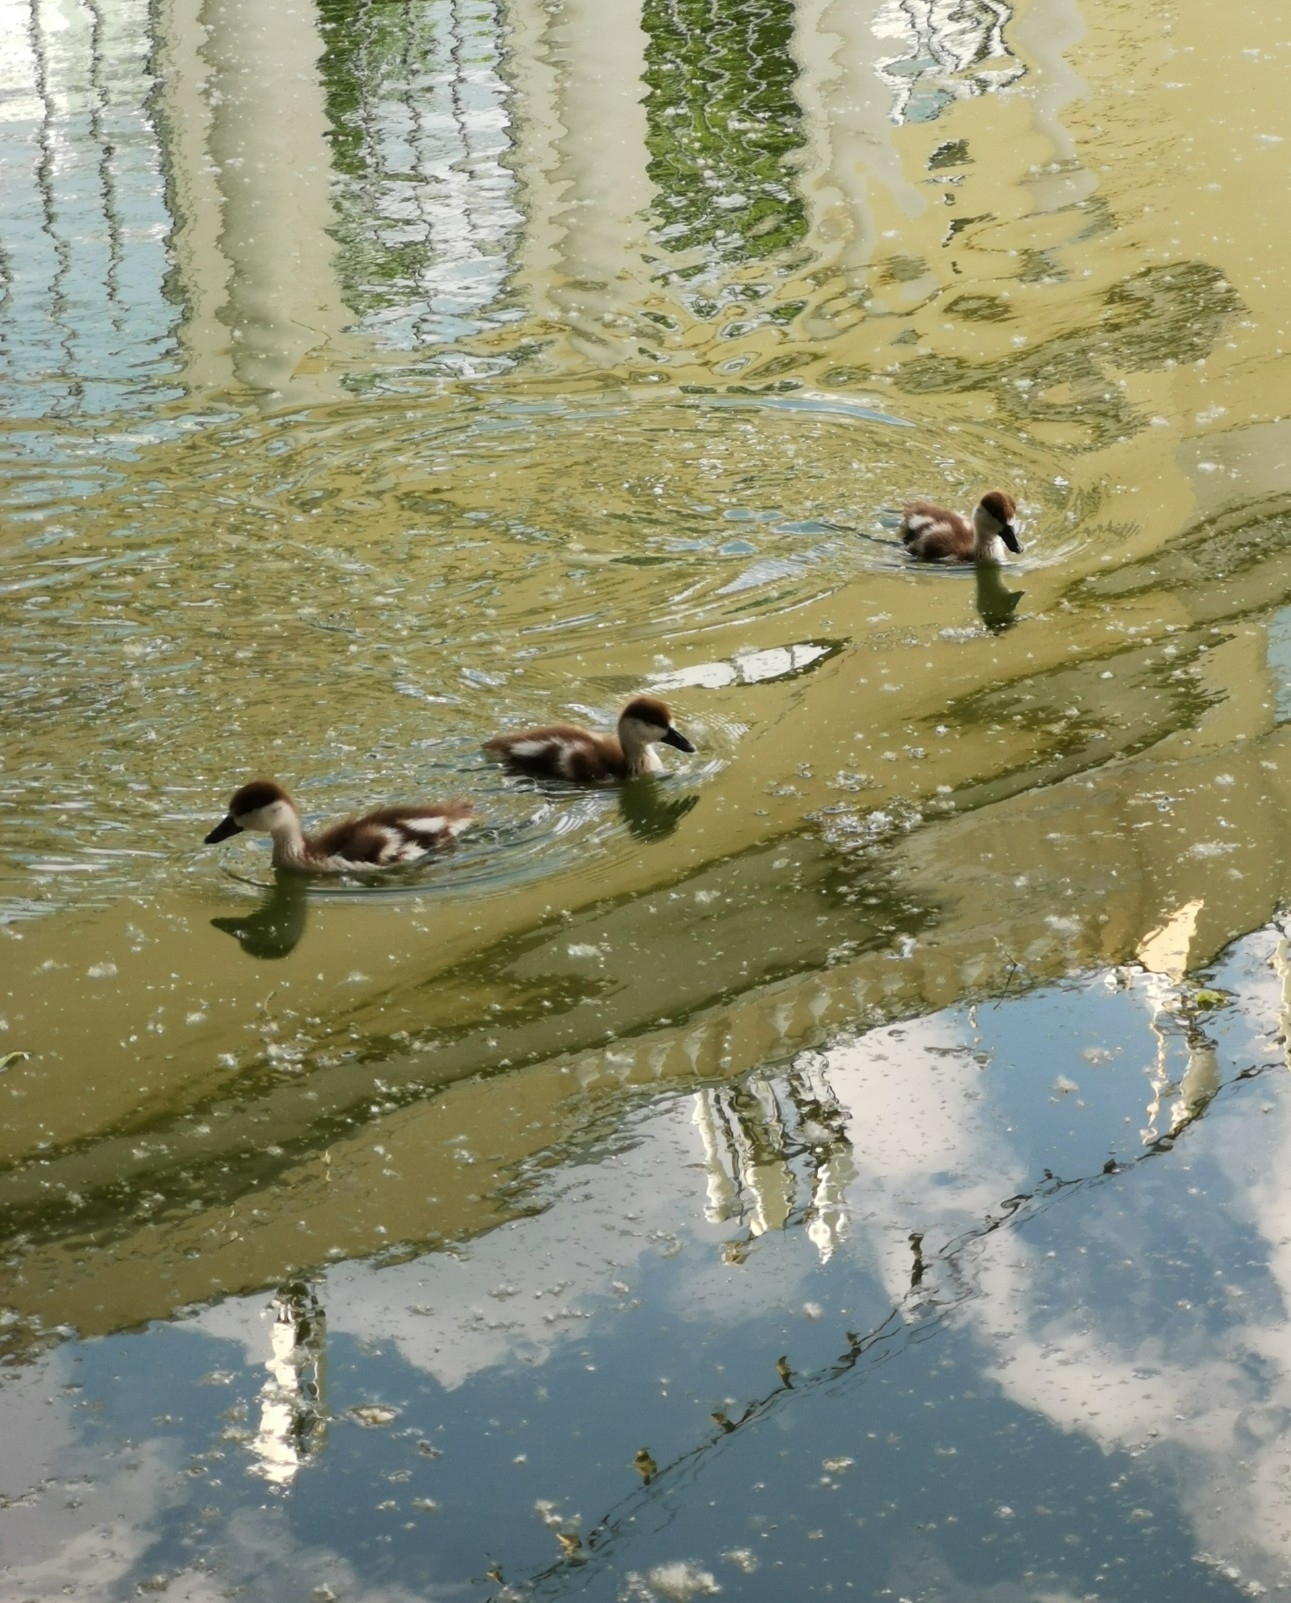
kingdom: Animalia
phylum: Chordata
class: Aves
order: Anseriformes
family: Anatidae
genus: Tadorna
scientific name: Tadorna ferruginea
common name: Ruddy shelduck
